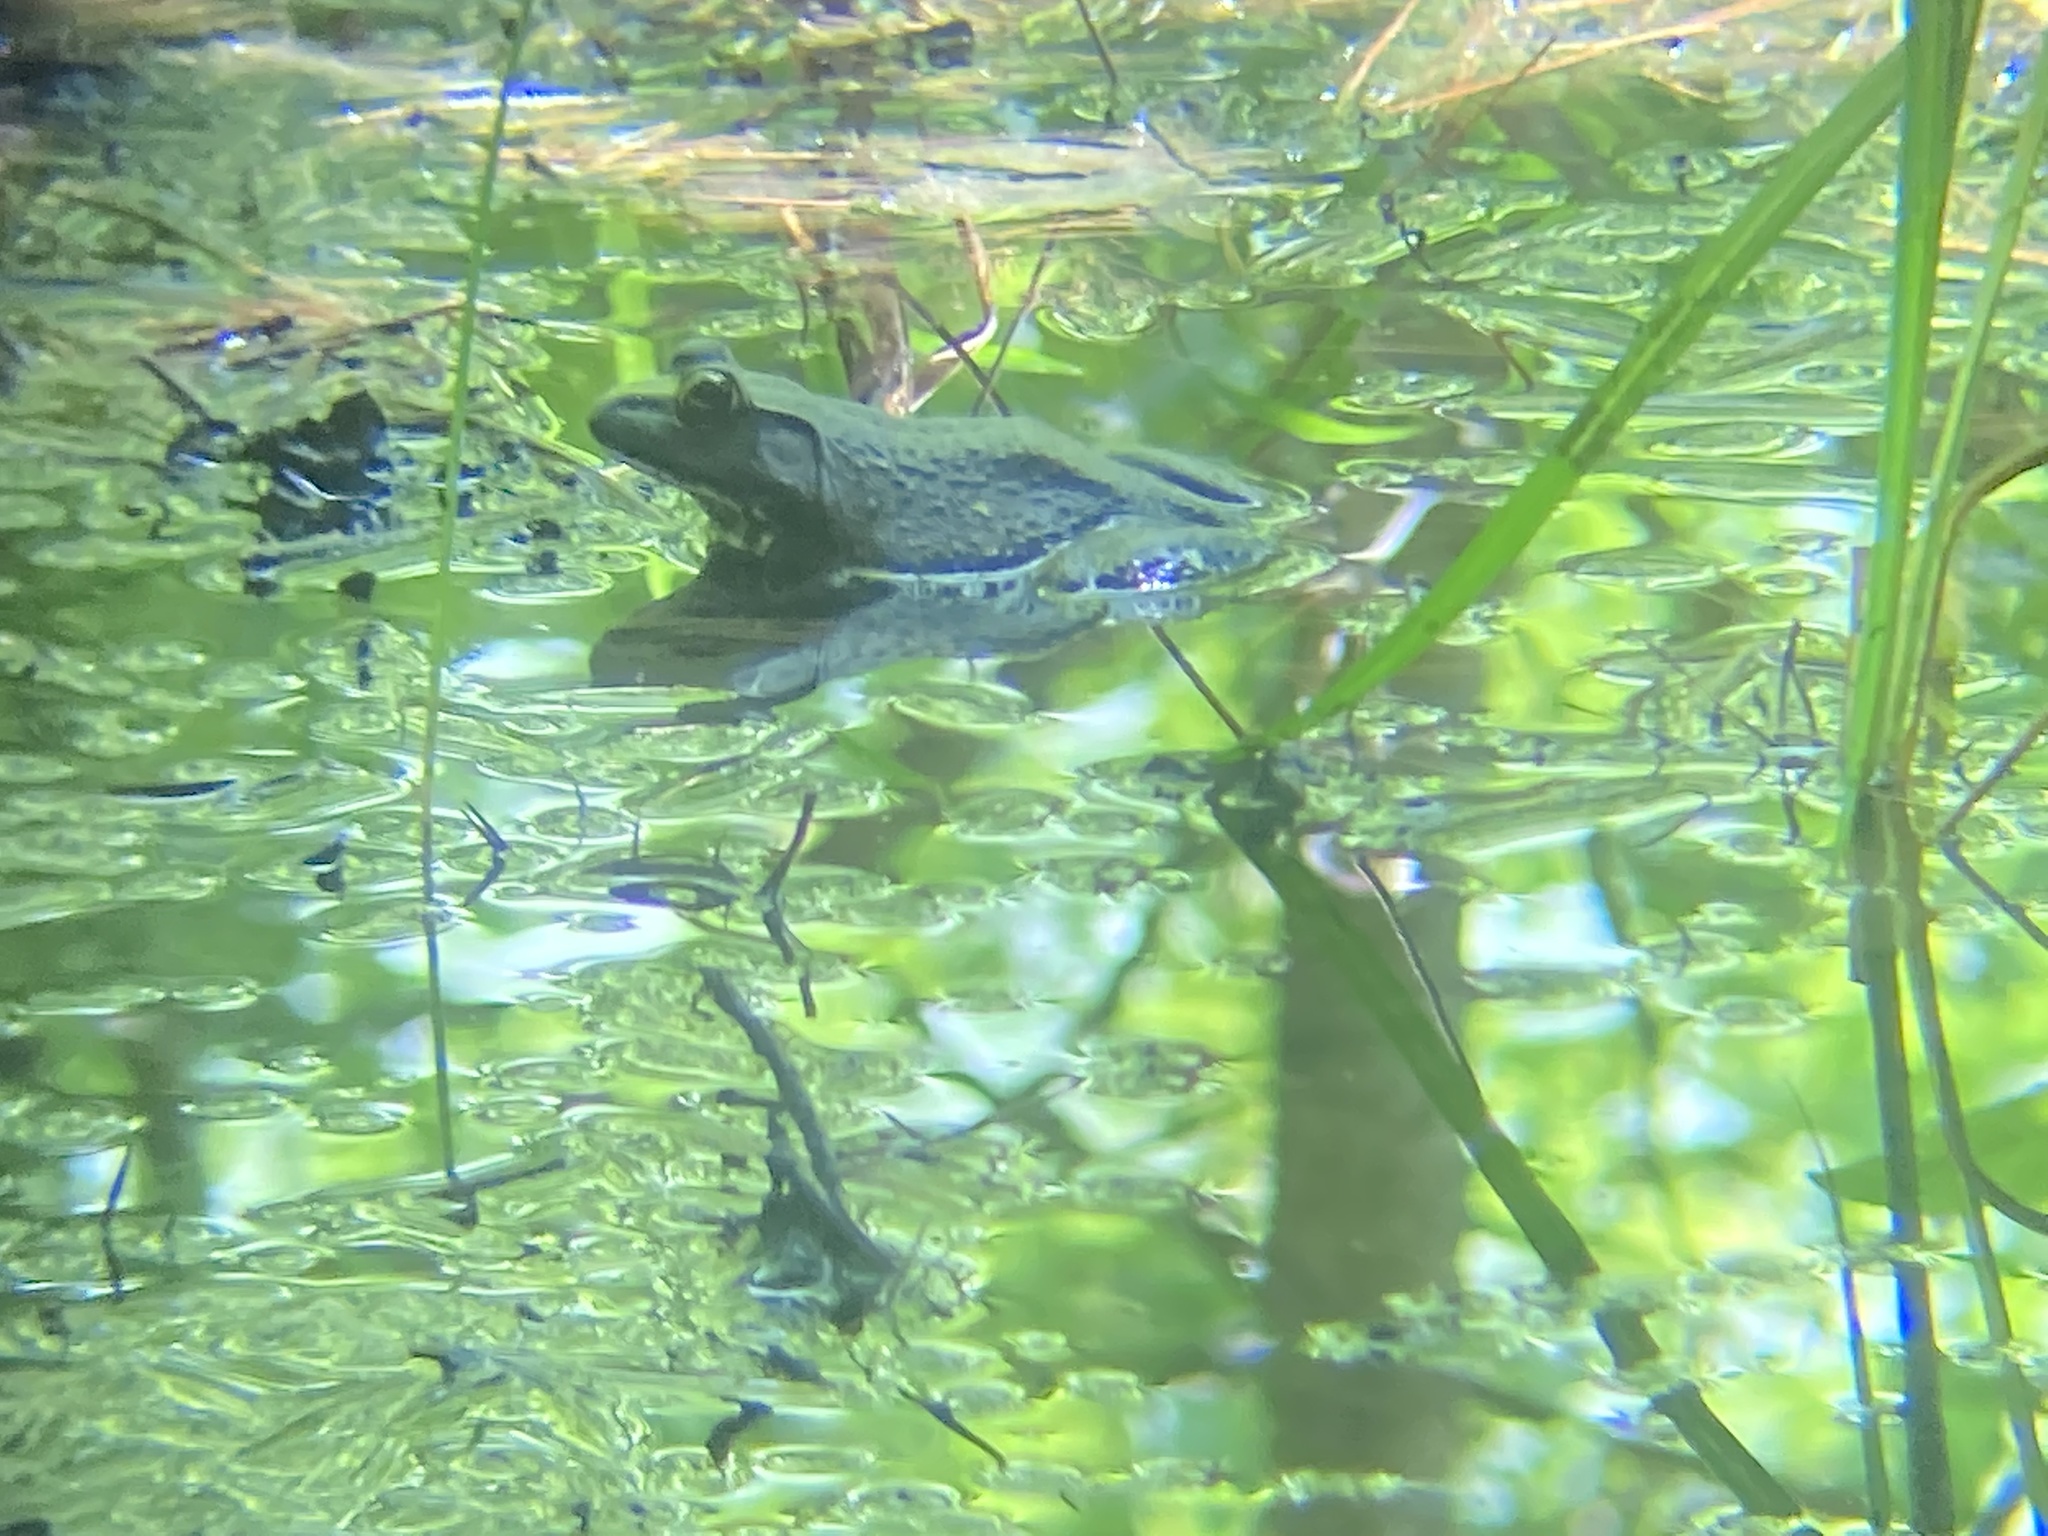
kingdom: Animalia
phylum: Chordata
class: Amphibia
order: Anura
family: Ranidae
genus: Lithobates
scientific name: Lithobates catesbeianus
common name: American bullfrog
